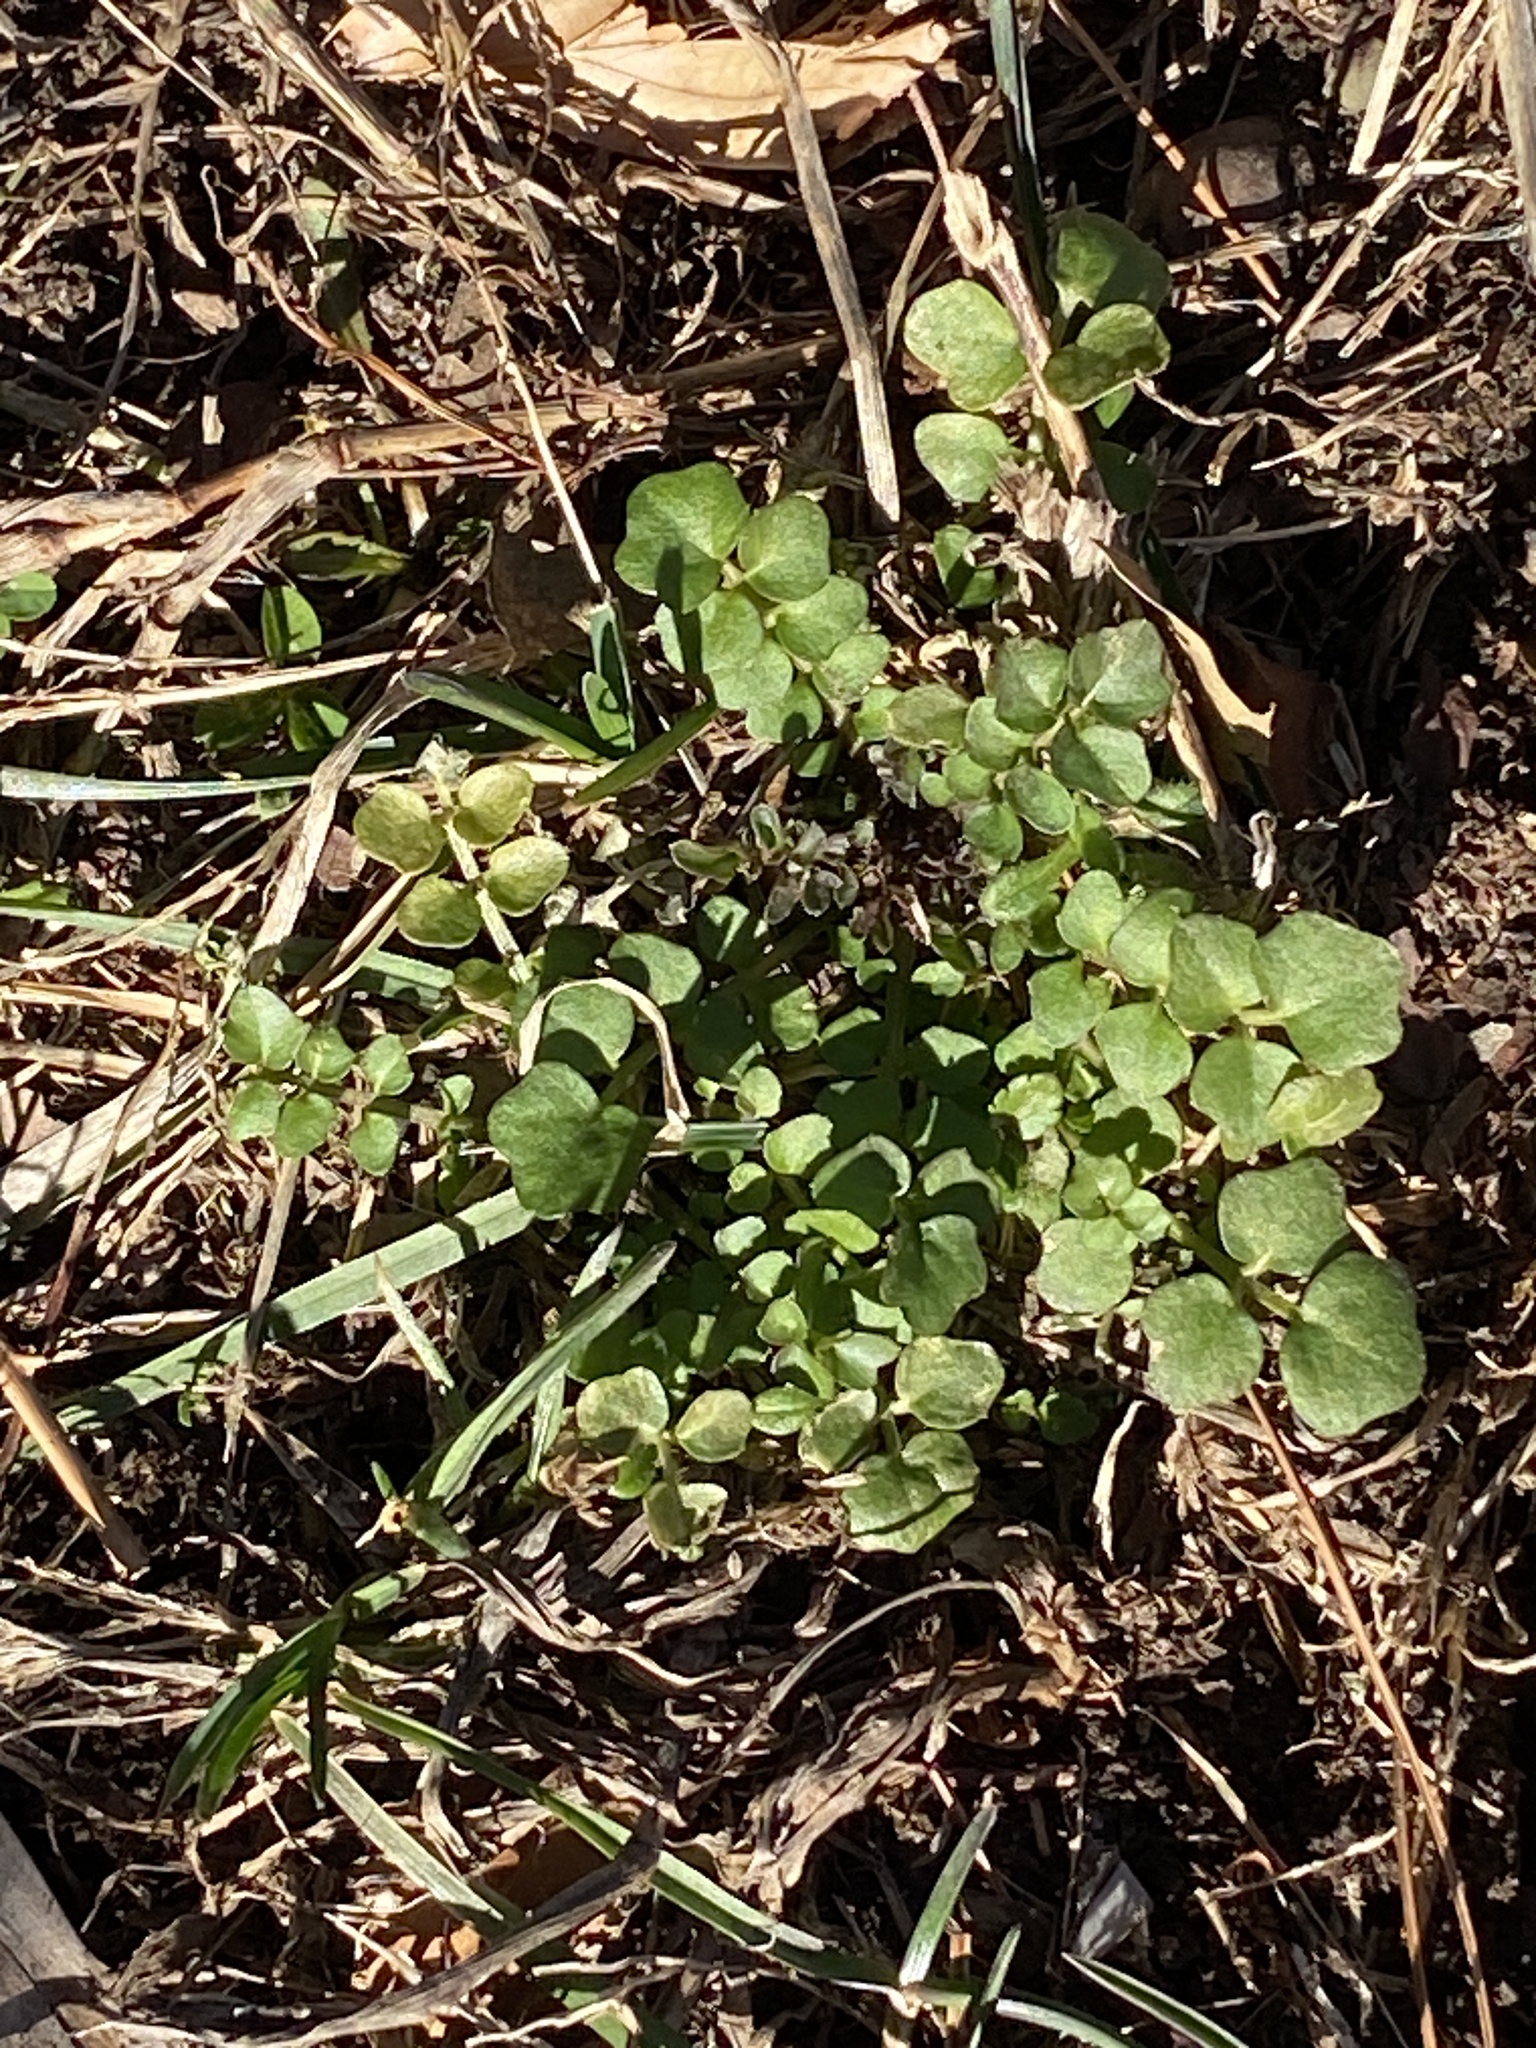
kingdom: Plantae
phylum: Tracheophyta
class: Magnoliopsida
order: Brassicales
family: Brassicaceae
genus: Cardamine
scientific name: Cardamine hirsuta
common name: Hairy bittercress
